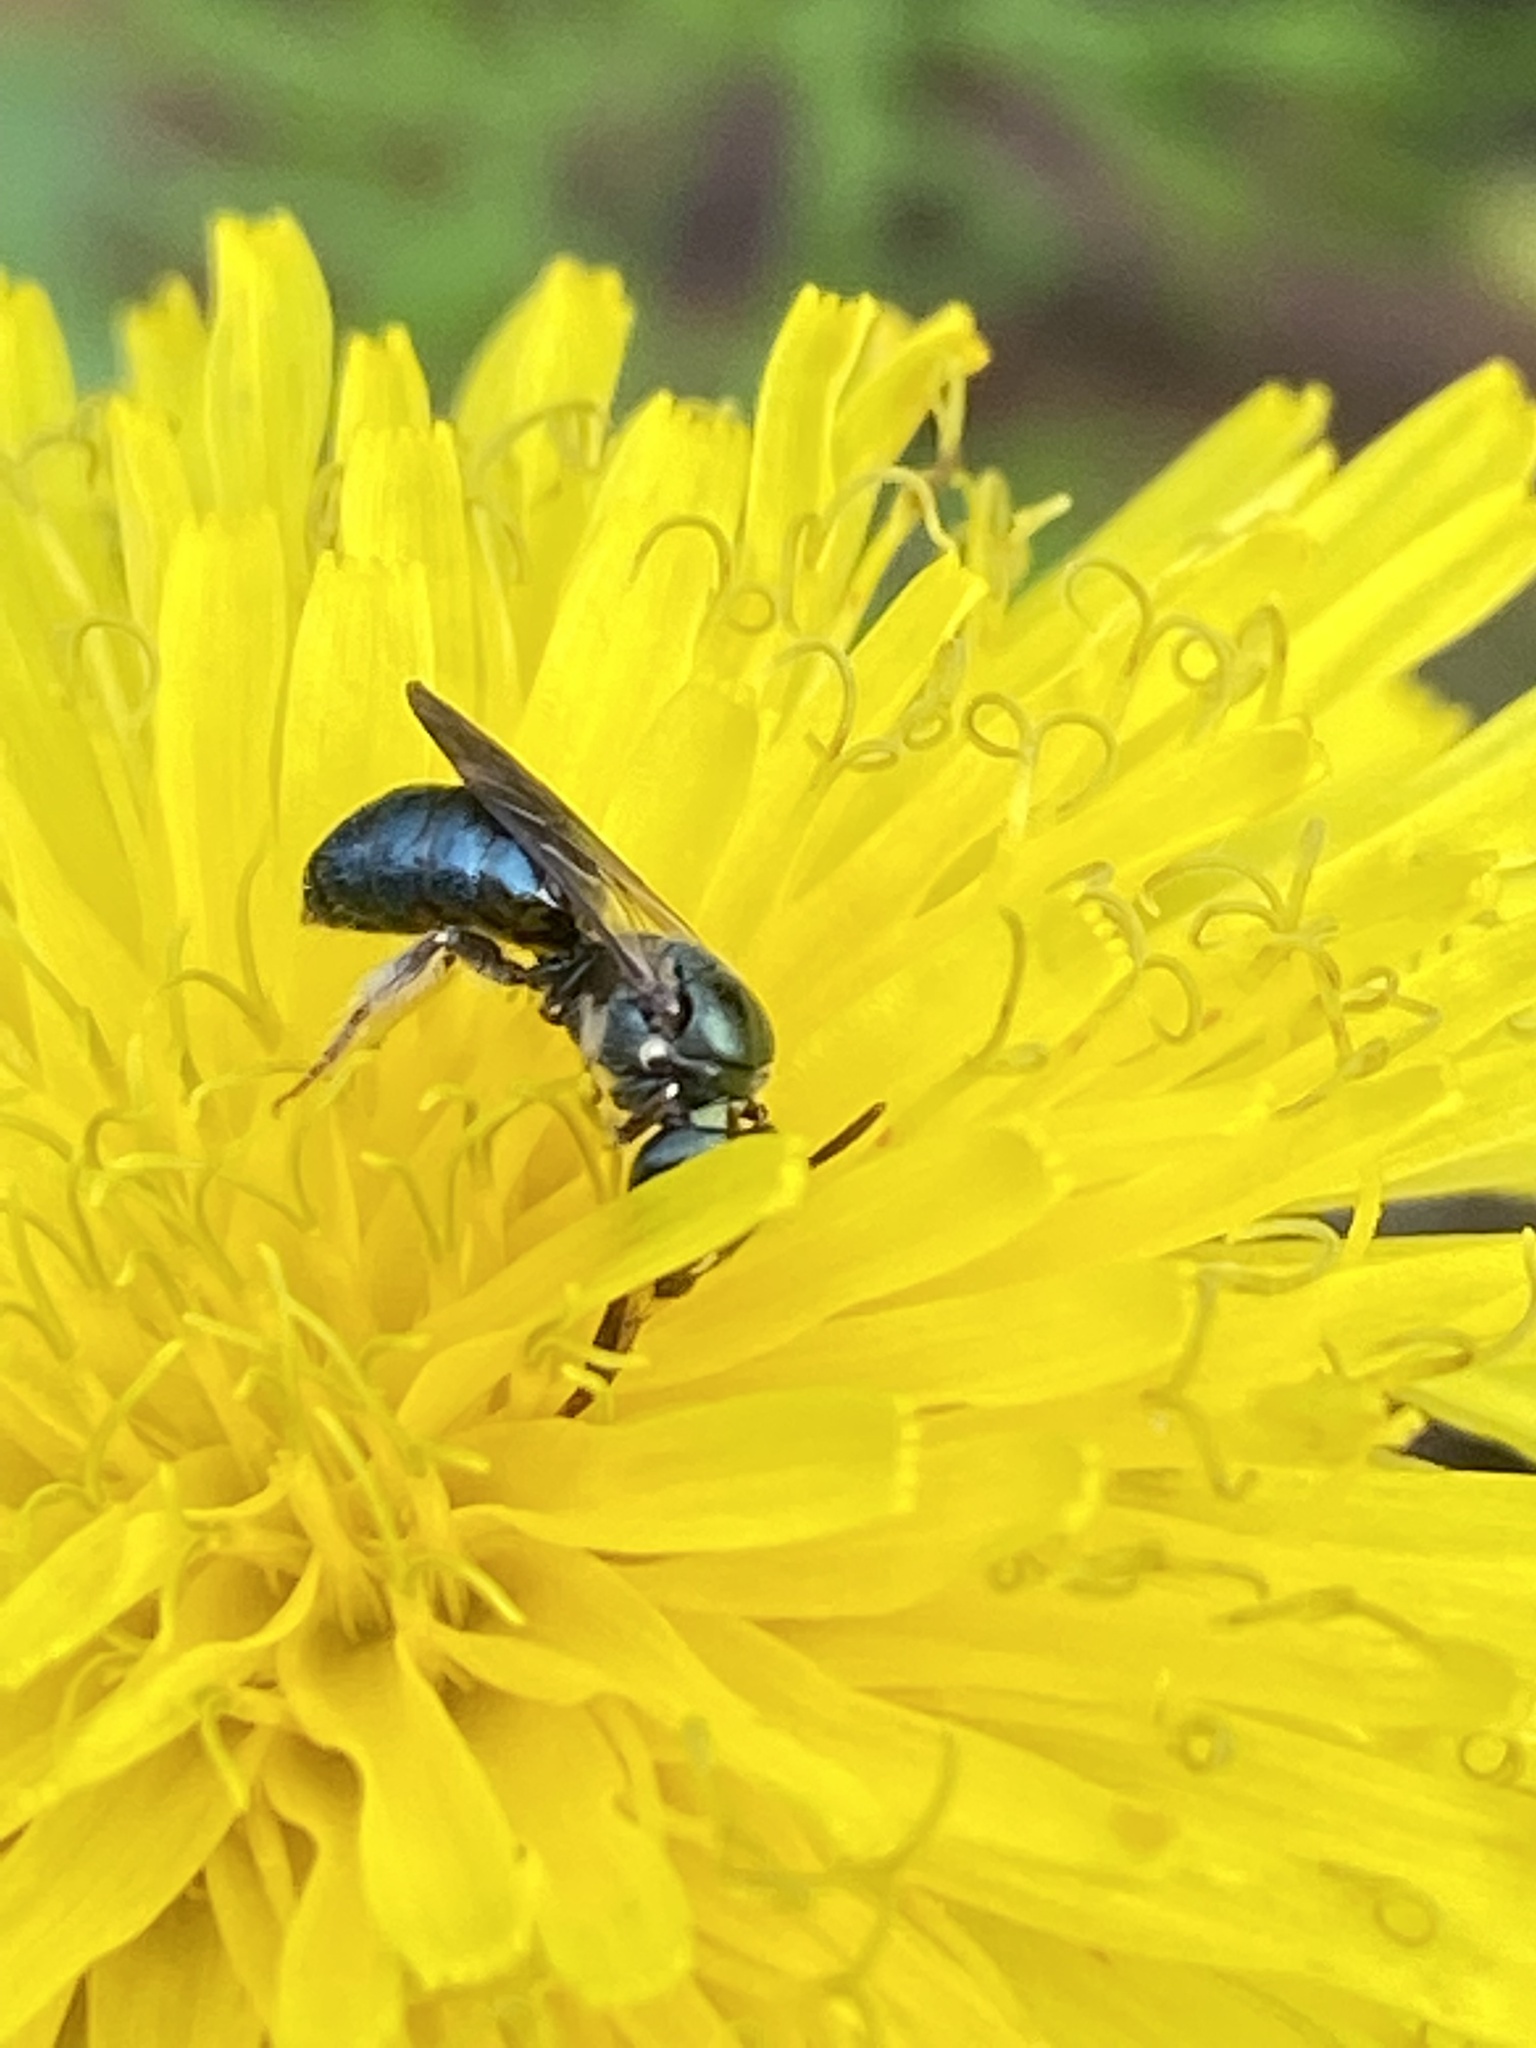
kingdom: Animalia
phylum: Arthropoda
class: Insecta
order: Hymenoptera
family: Apidae
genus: Zadontomerus
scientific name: Zadontomerus
